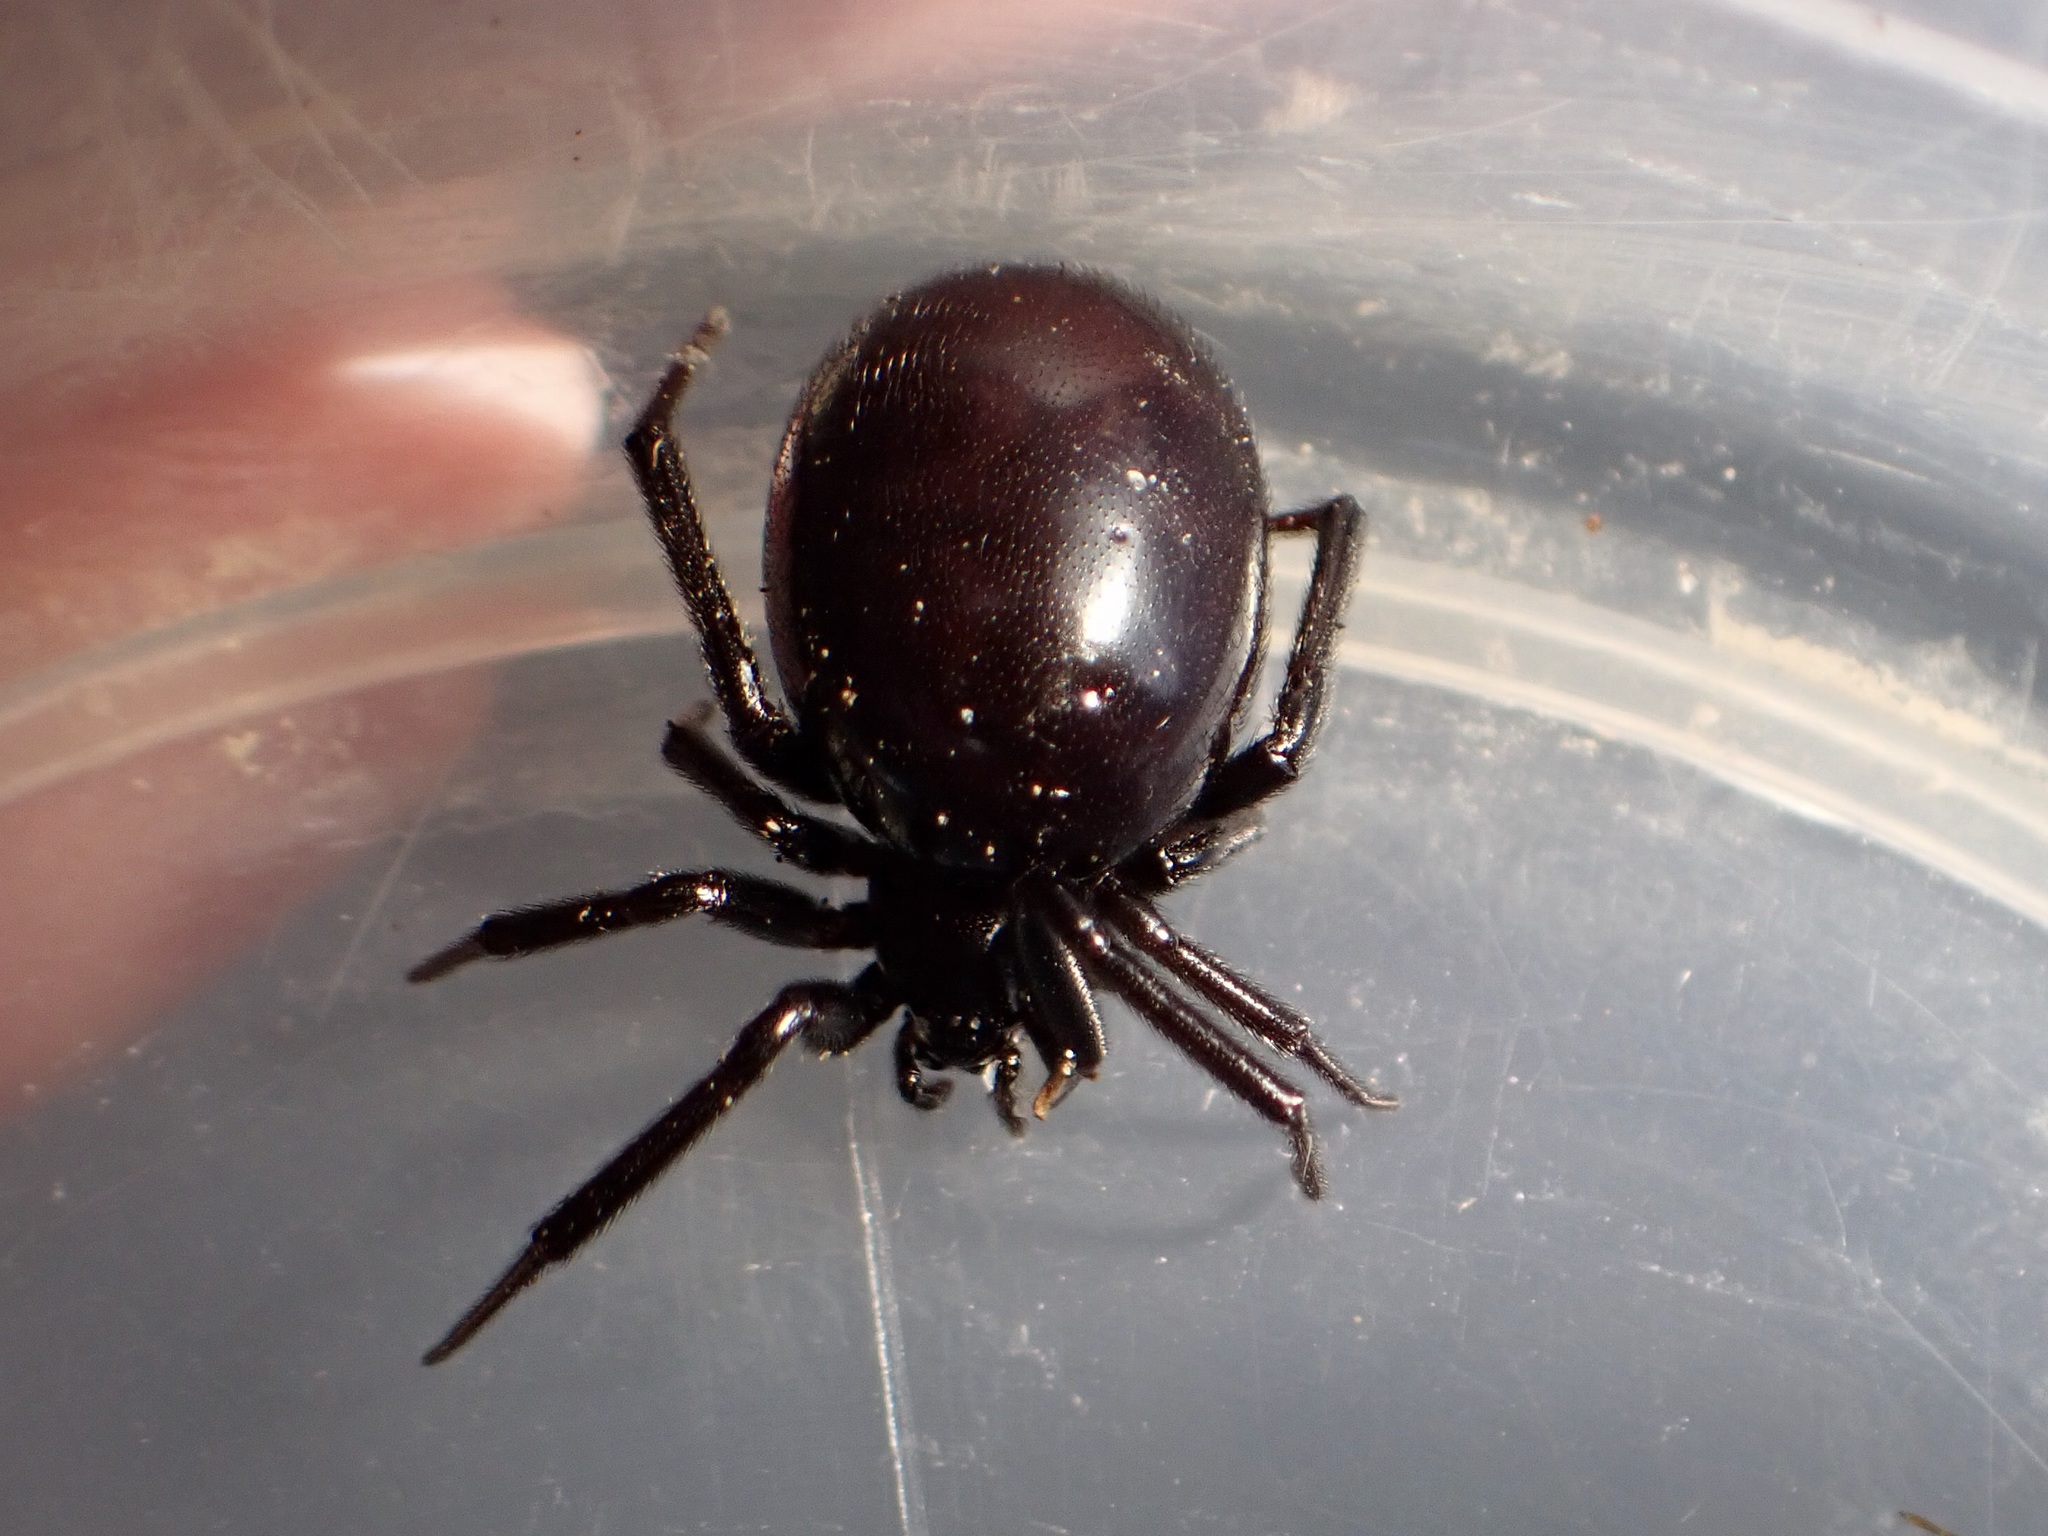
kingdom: Animalia
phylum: Arthropoda
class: Arachnida
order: Araneae
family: Theridiidae
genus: Steatoda
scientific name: Steatoda capensis
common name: Cobweb weaver
